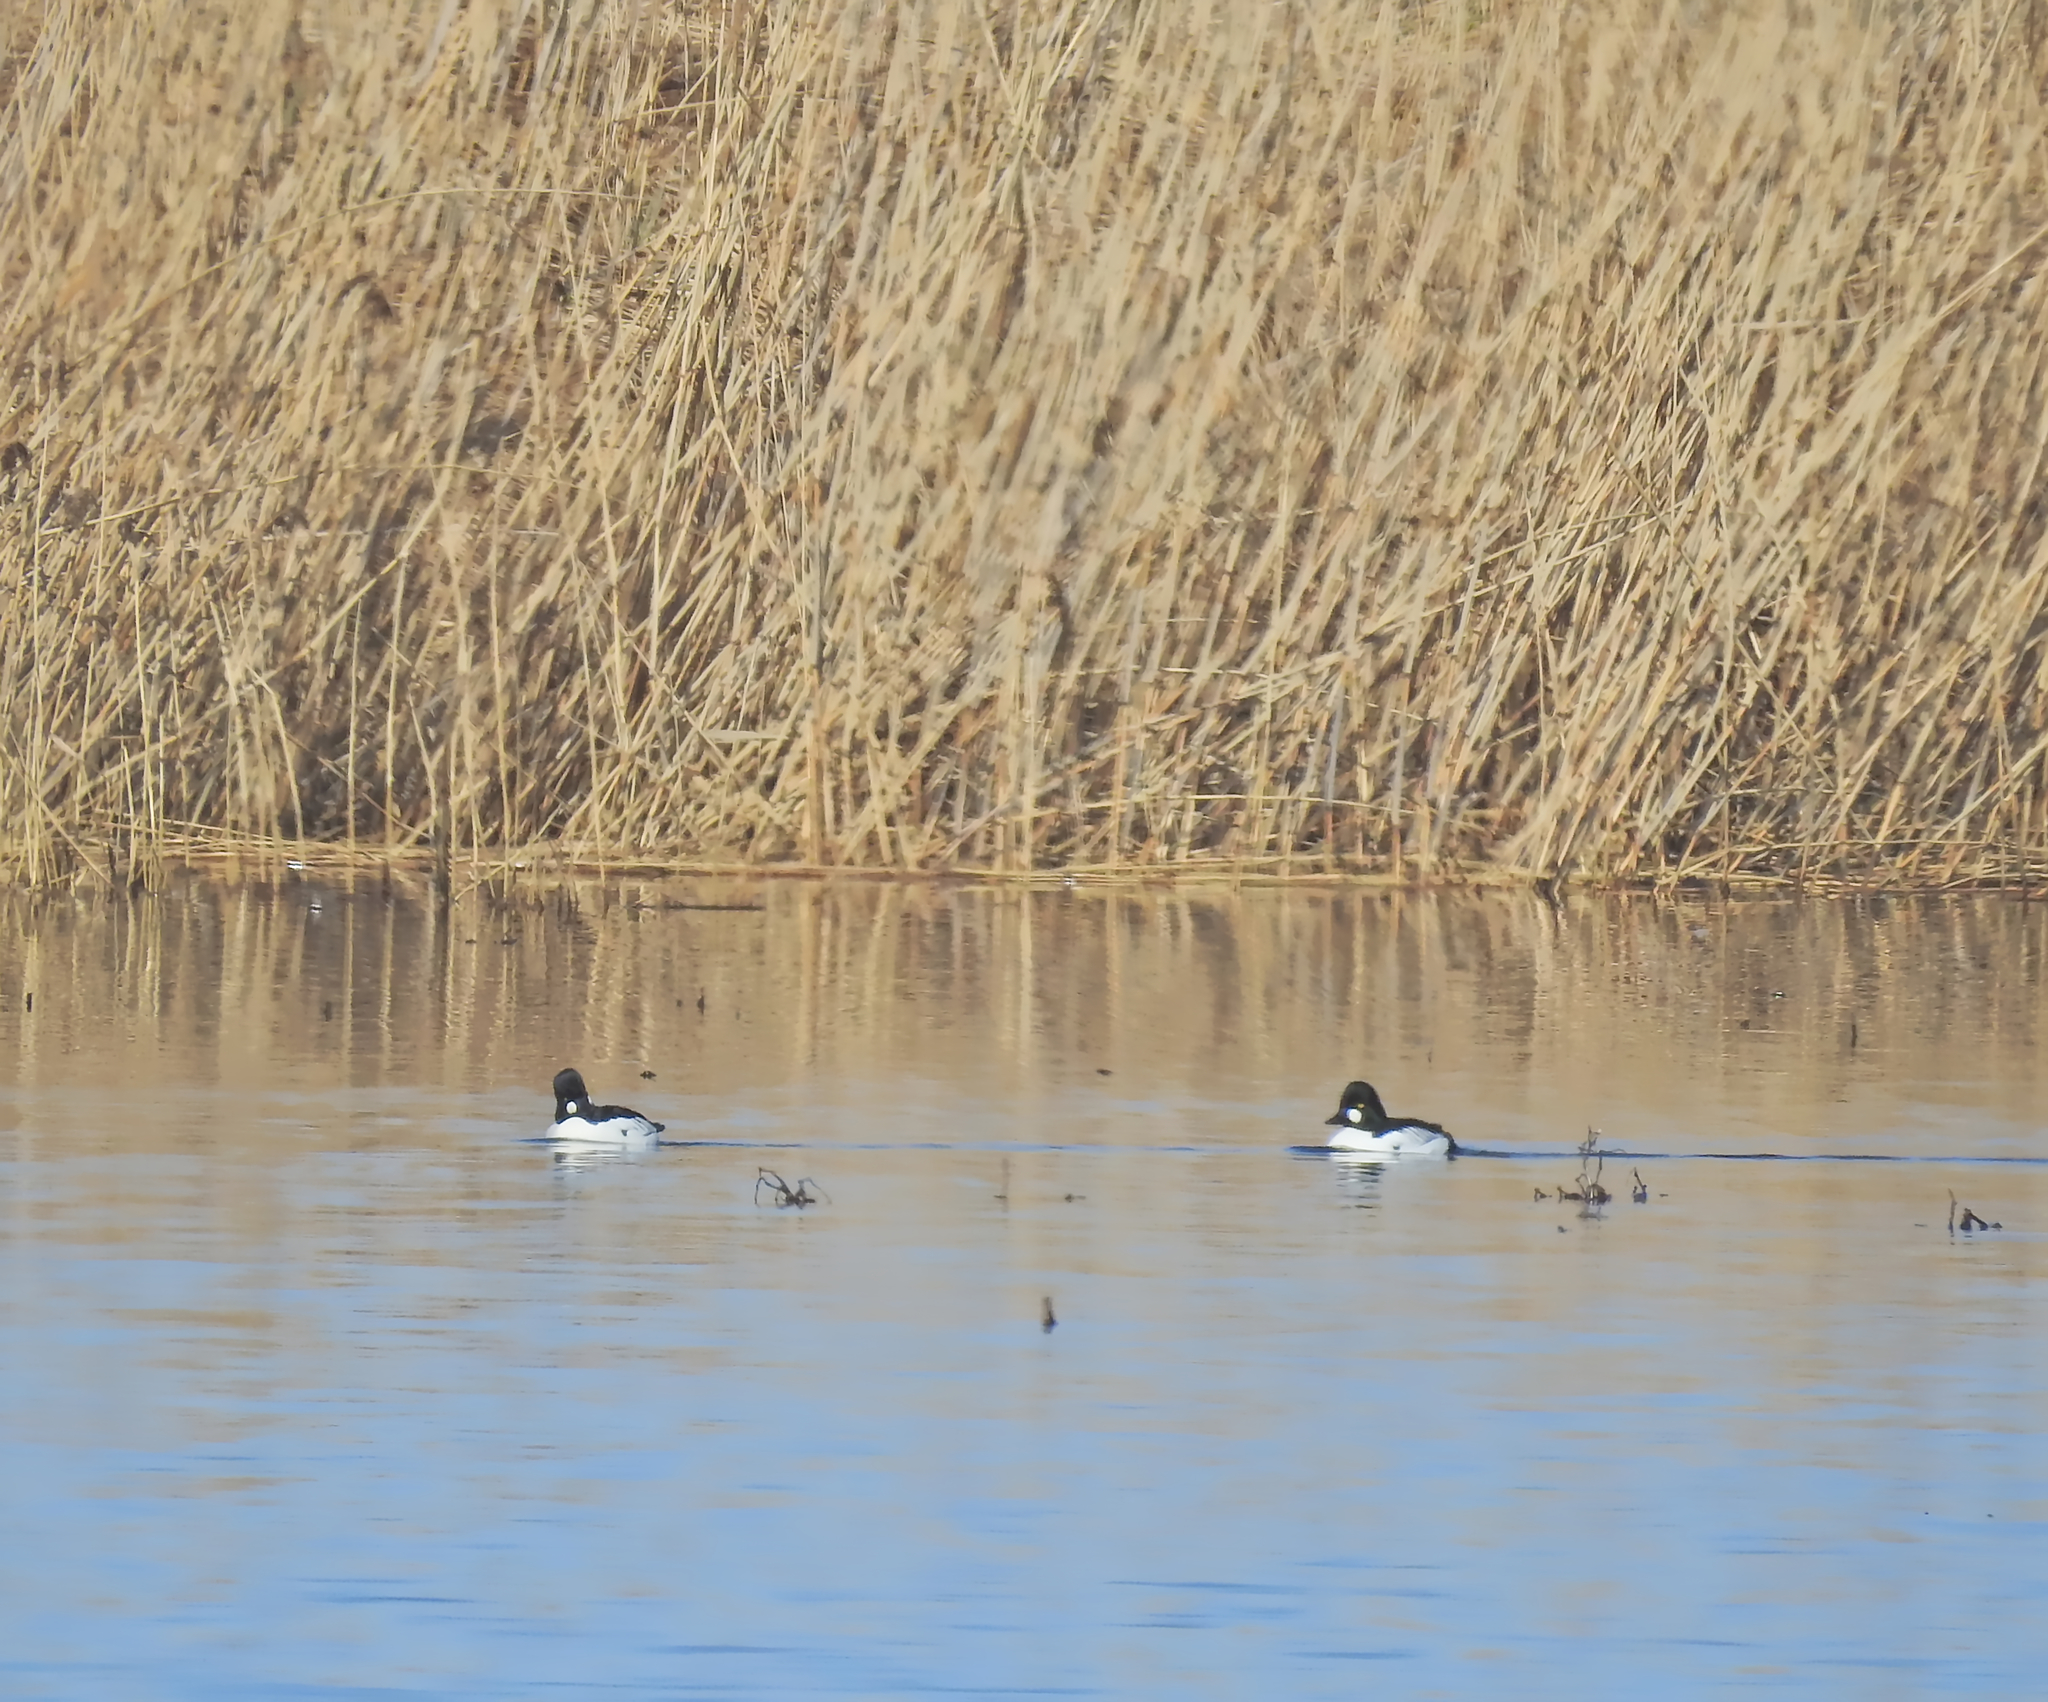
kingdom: Animalia
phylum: Chordata
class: Aves
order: Anseriformes
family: Anatidae
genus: Bucephala
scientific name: Bucephala clangula
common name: Common goldeneye
